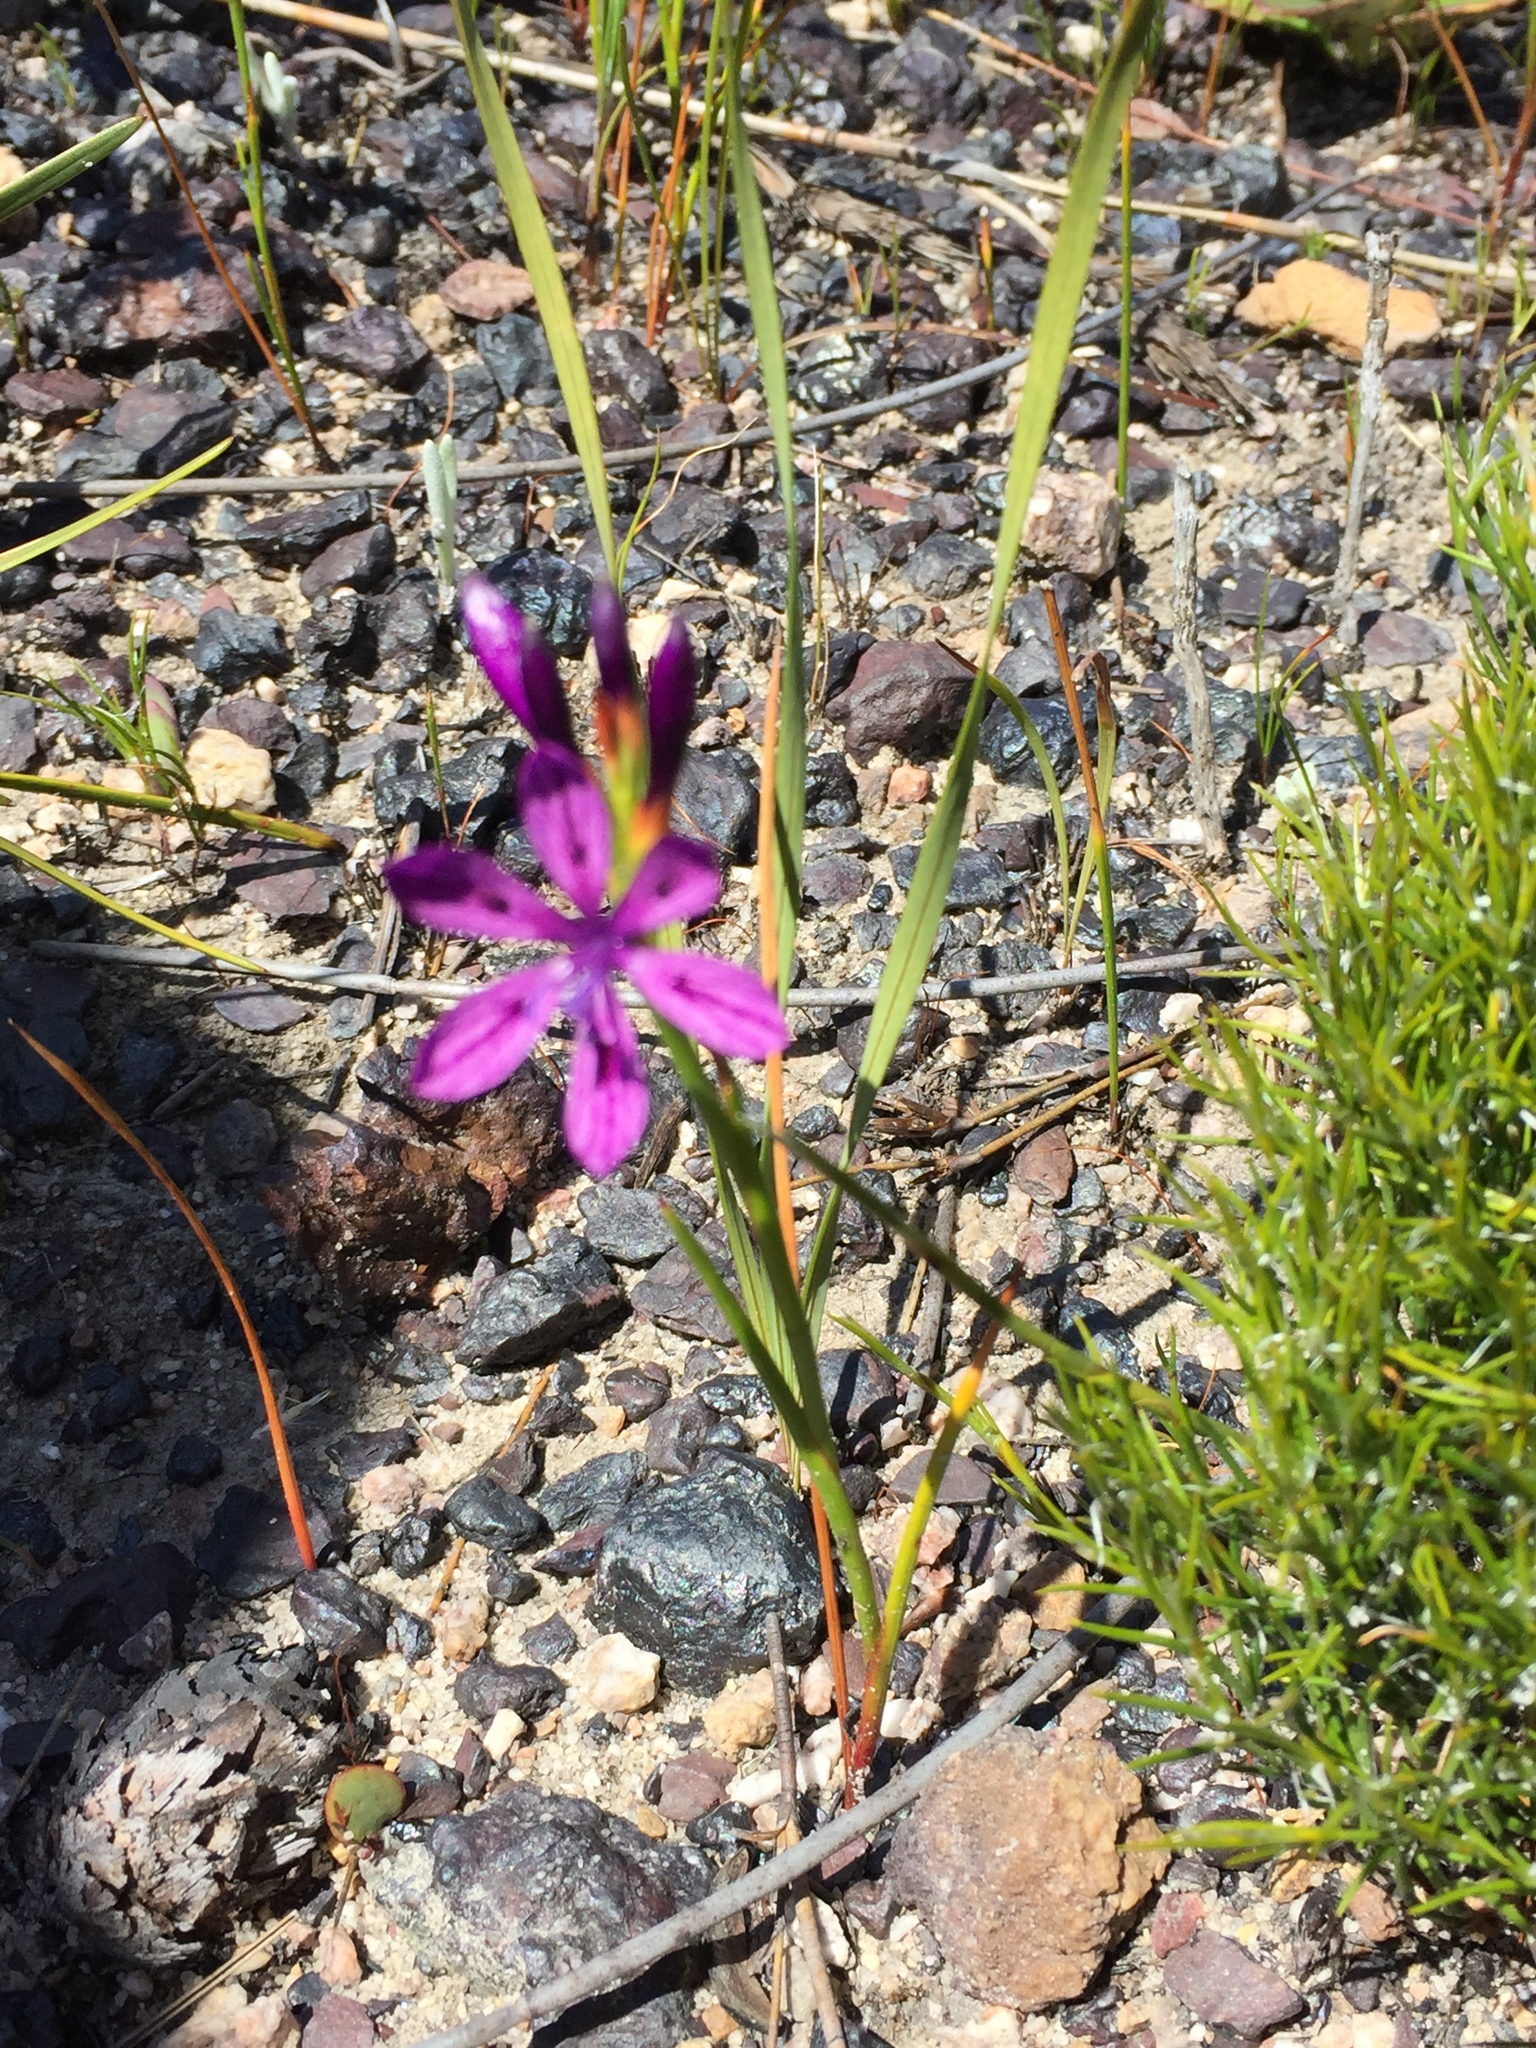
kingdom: Plantae
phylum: Tracheophyta
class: Liliopsida
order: Asparagales
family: Iridaceae
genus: Thereianthus
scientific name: Thereianthus bracteolatus
